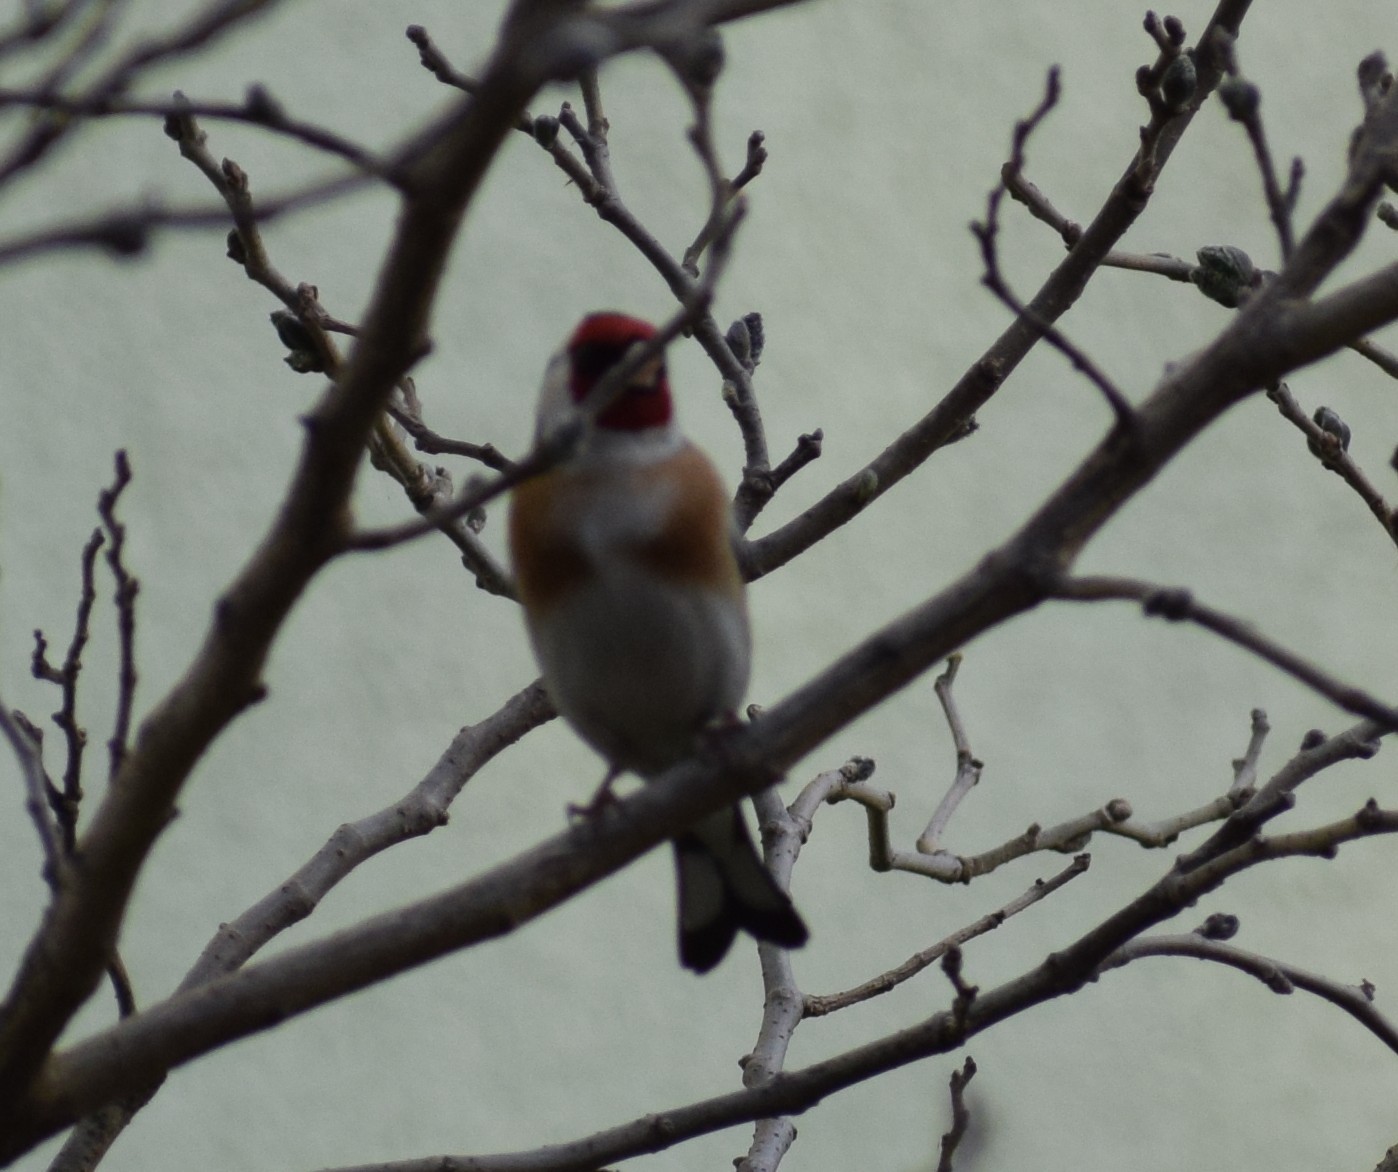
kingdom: Animalia
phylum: Chordata
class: Aves
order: Passeriformes
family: Fringillidae
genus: Carduelis
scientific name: Carduelis carduelis
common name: European goldfinch
